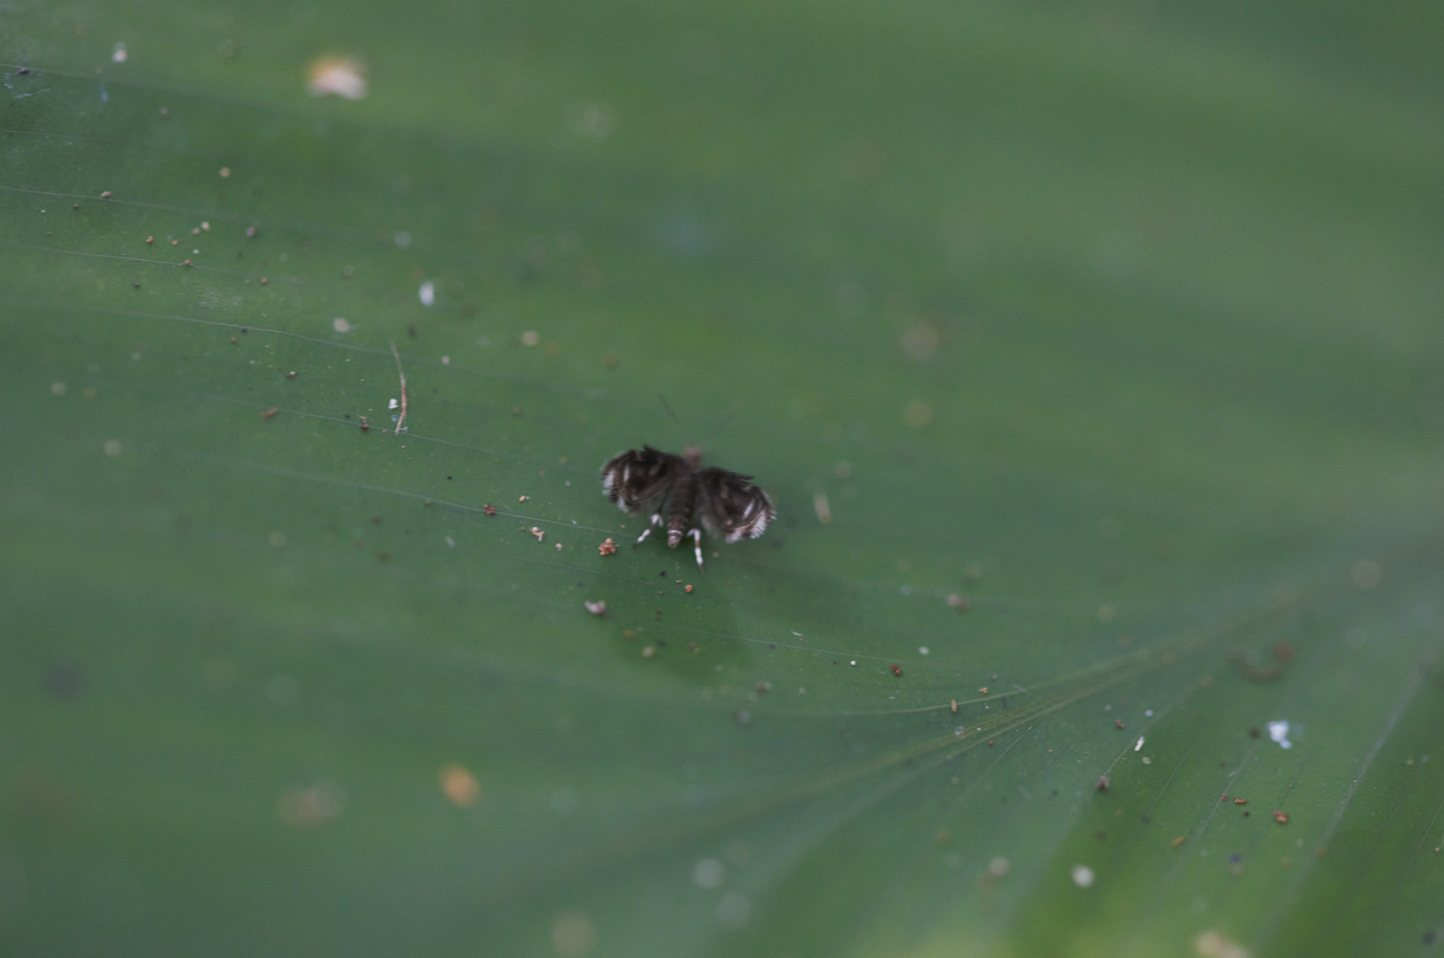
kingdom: Animalia
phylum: Arthropoda
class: Insecta
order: Lepidoptera
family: Choreutidae
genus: Brenthia
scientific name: Brenthia
